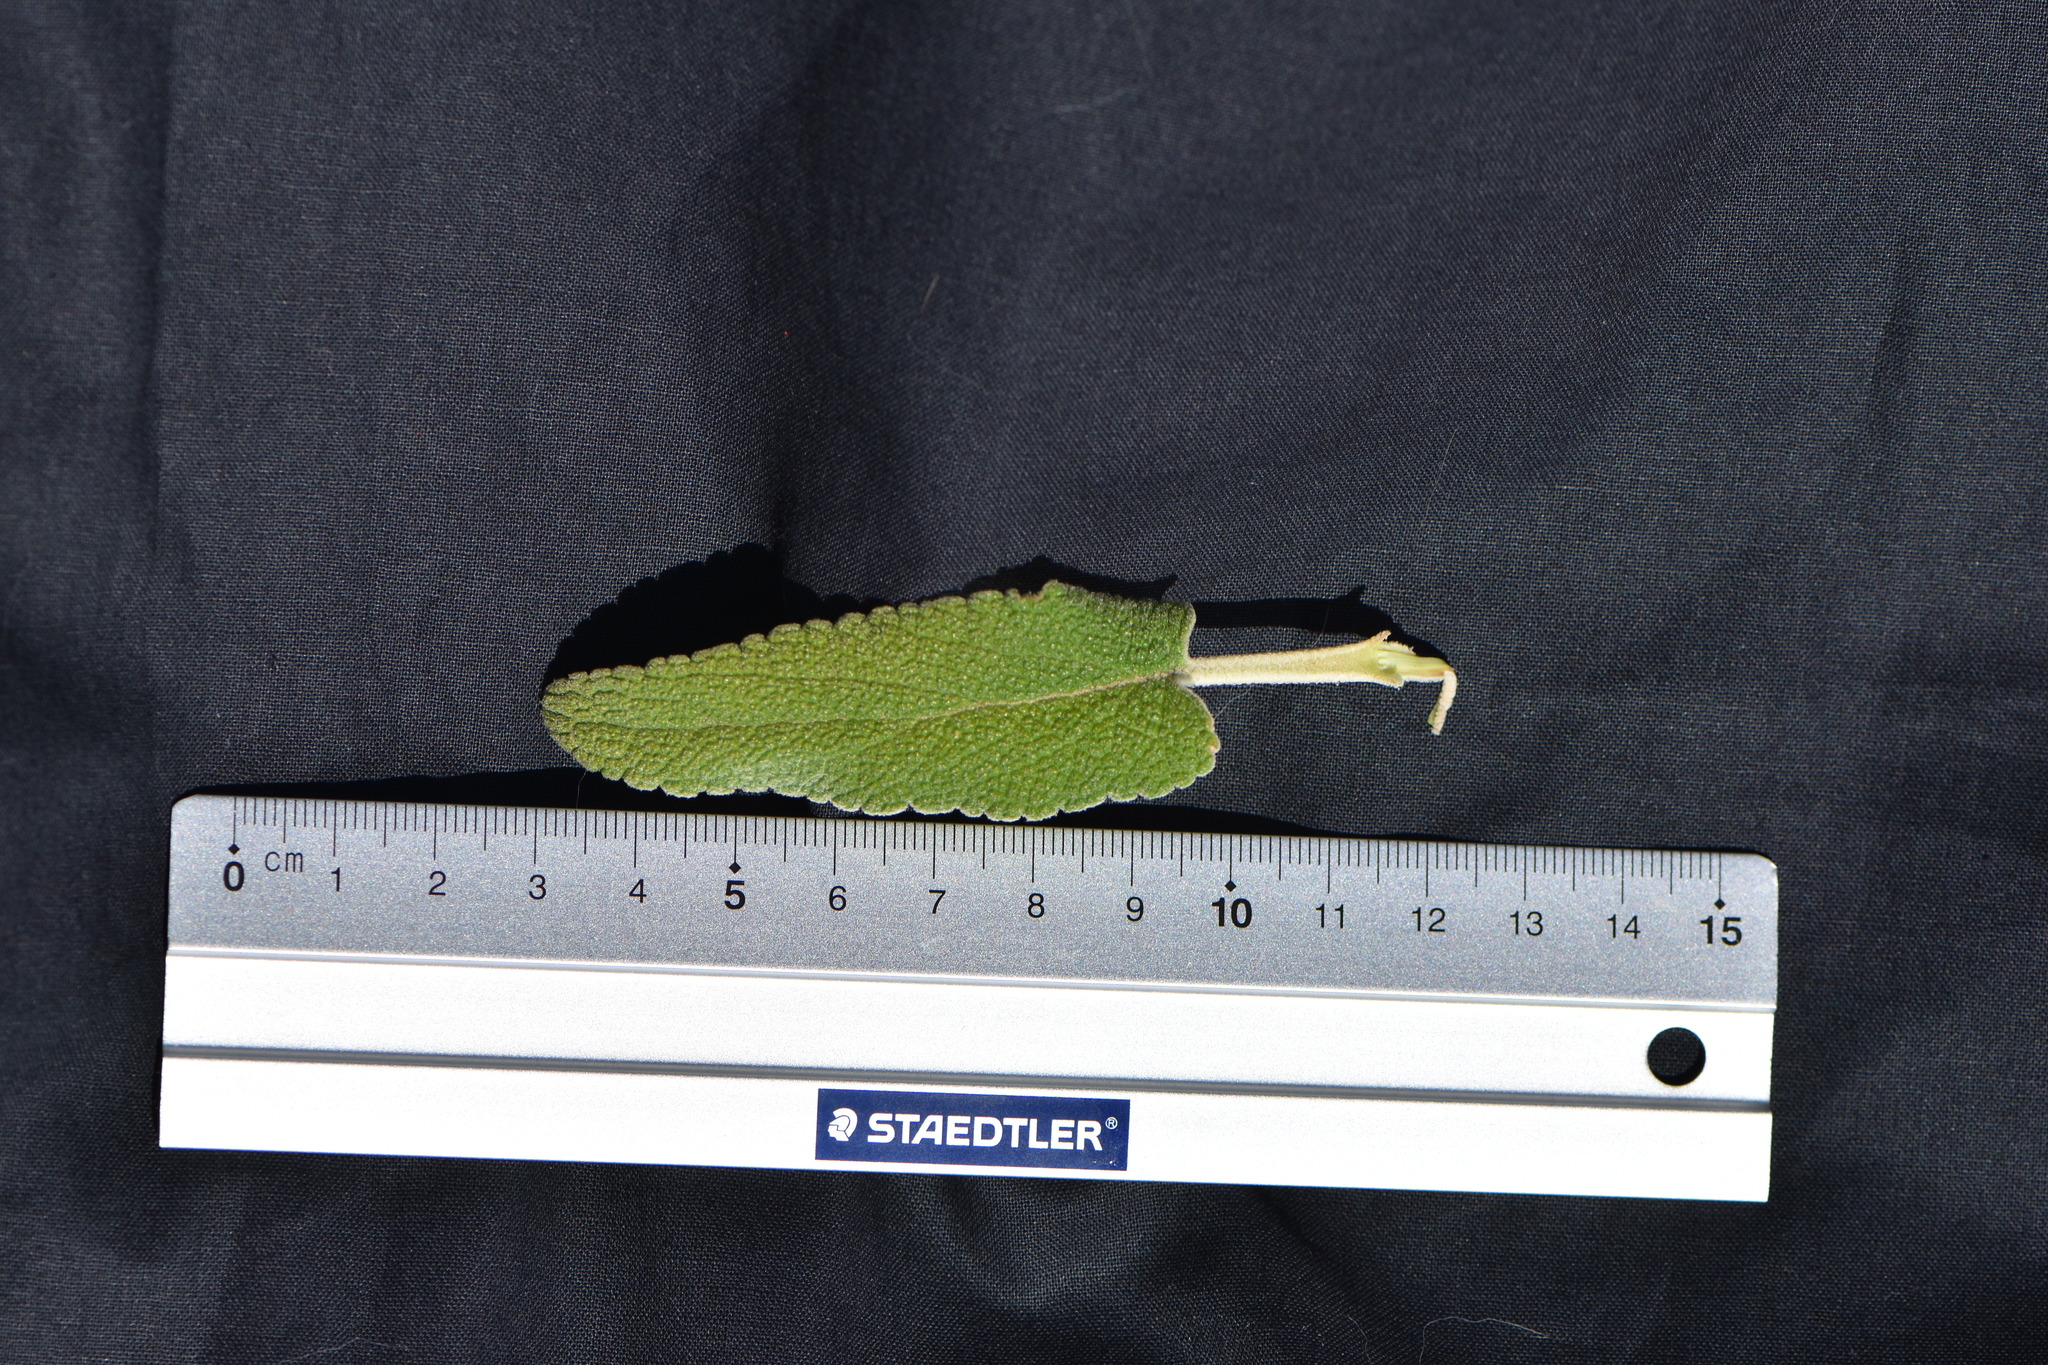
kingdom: Plantae
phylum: Tracheophyta
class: Magnoliopsida
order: Lamiales
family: Lamiaceae
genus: Phlomis
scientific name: Phlomis purpurea
